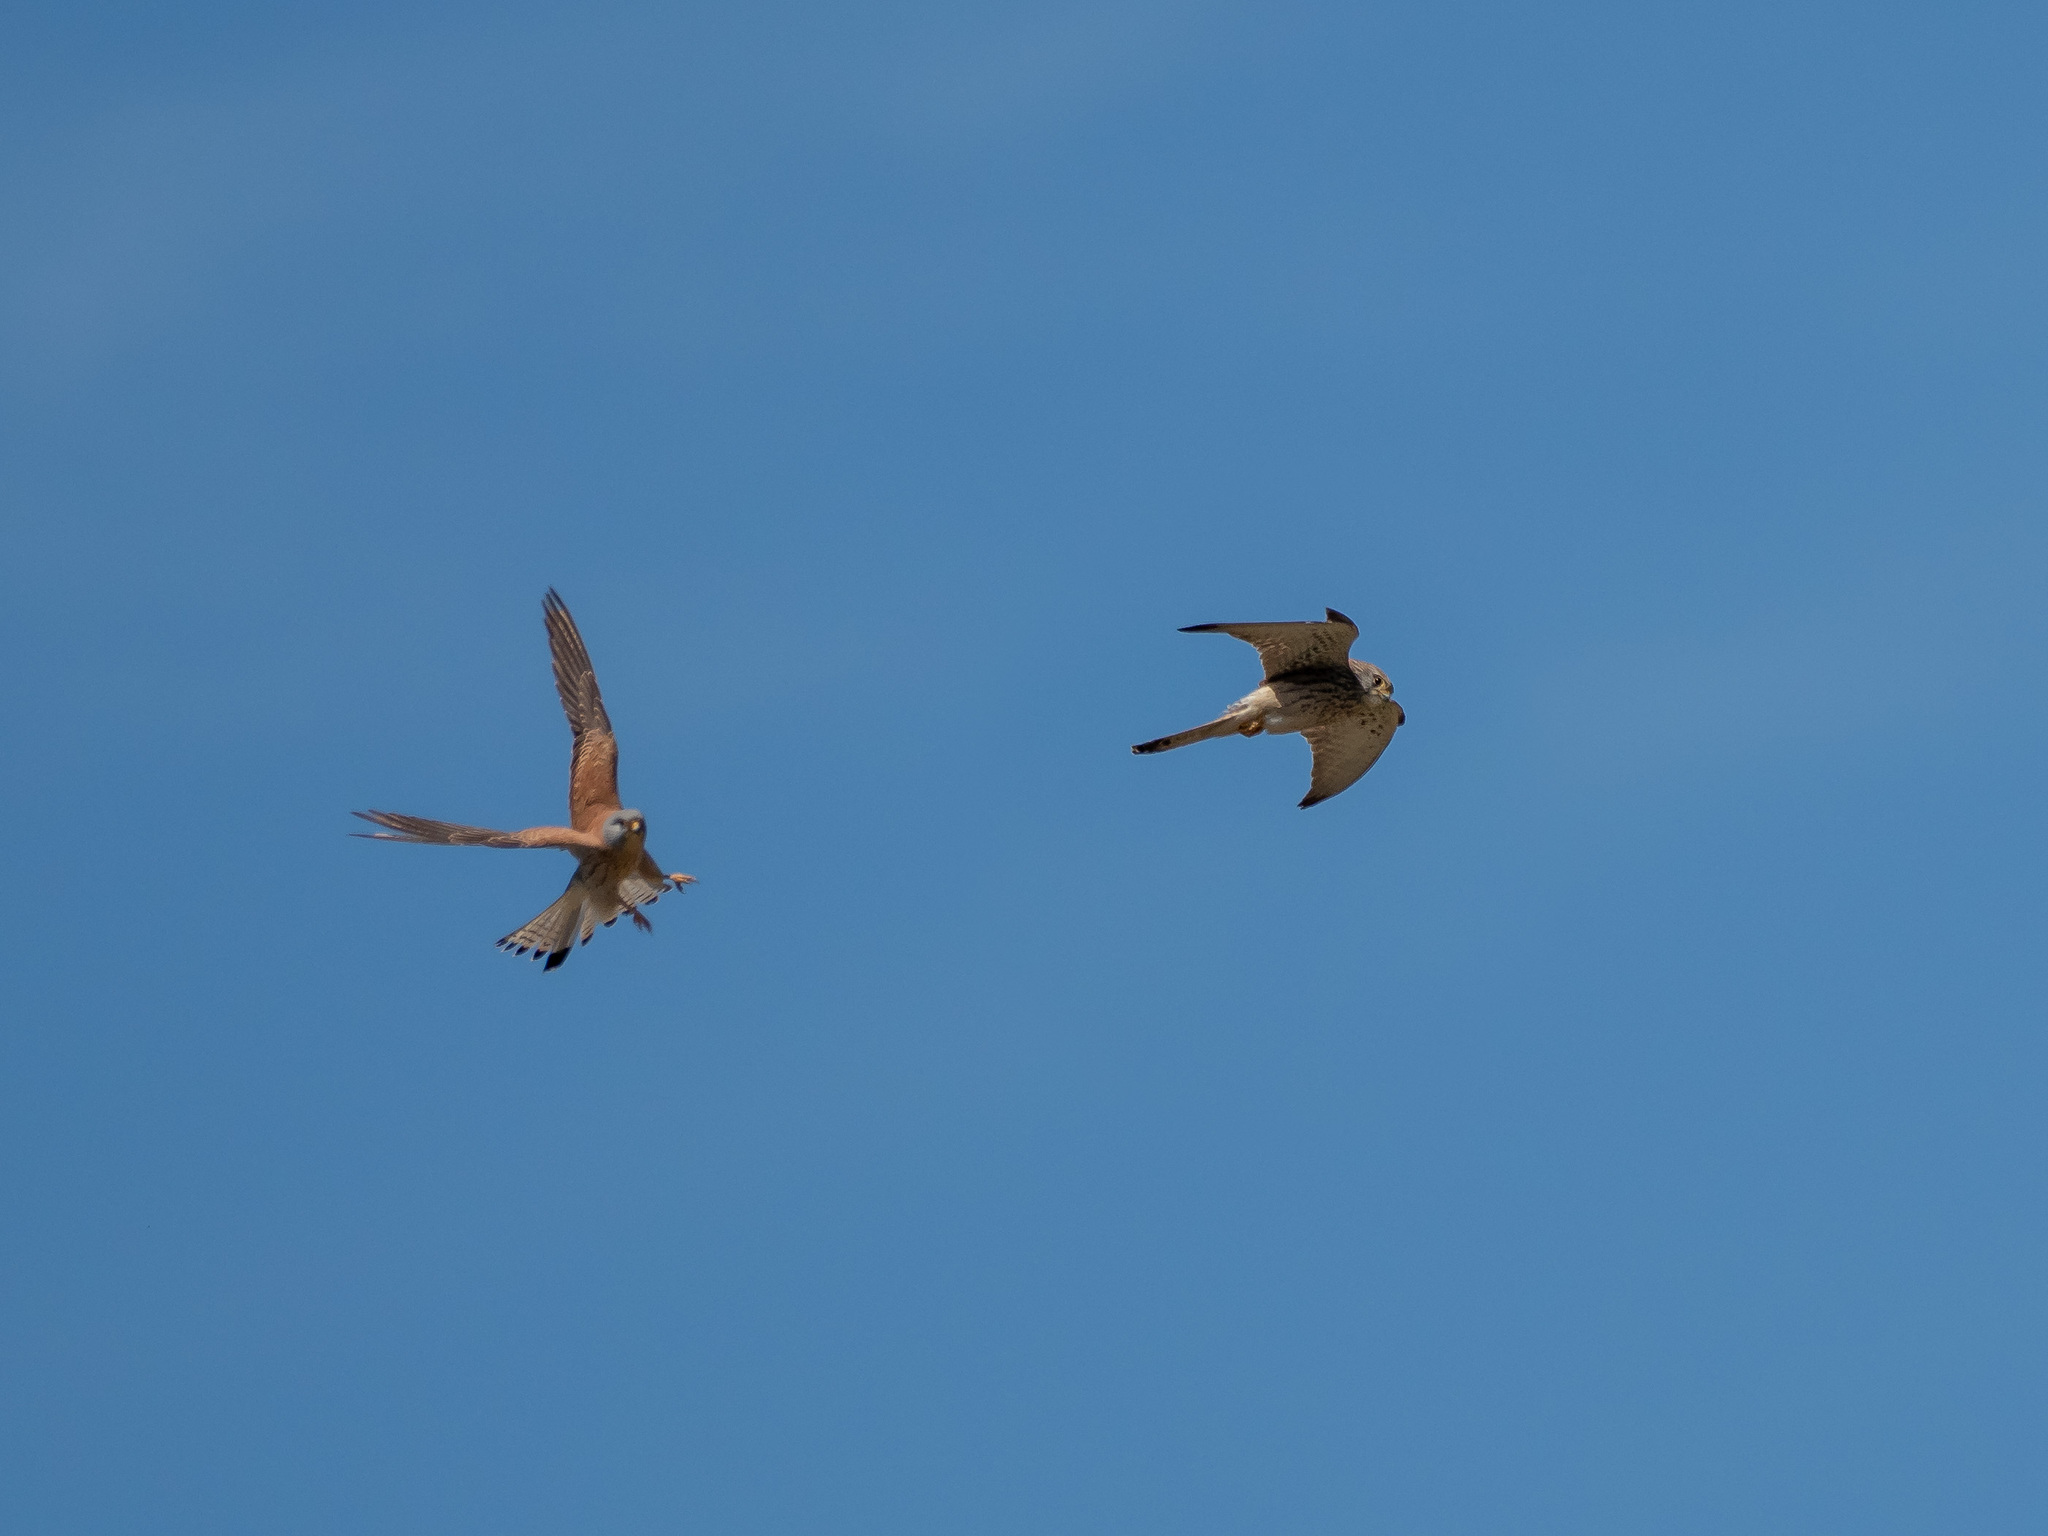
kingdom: Animalia
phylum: Chordata
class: Aves
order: Falconiformes
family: Falconidae
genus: Falco
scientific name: Falco naumanni
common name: Lesser kestrel
